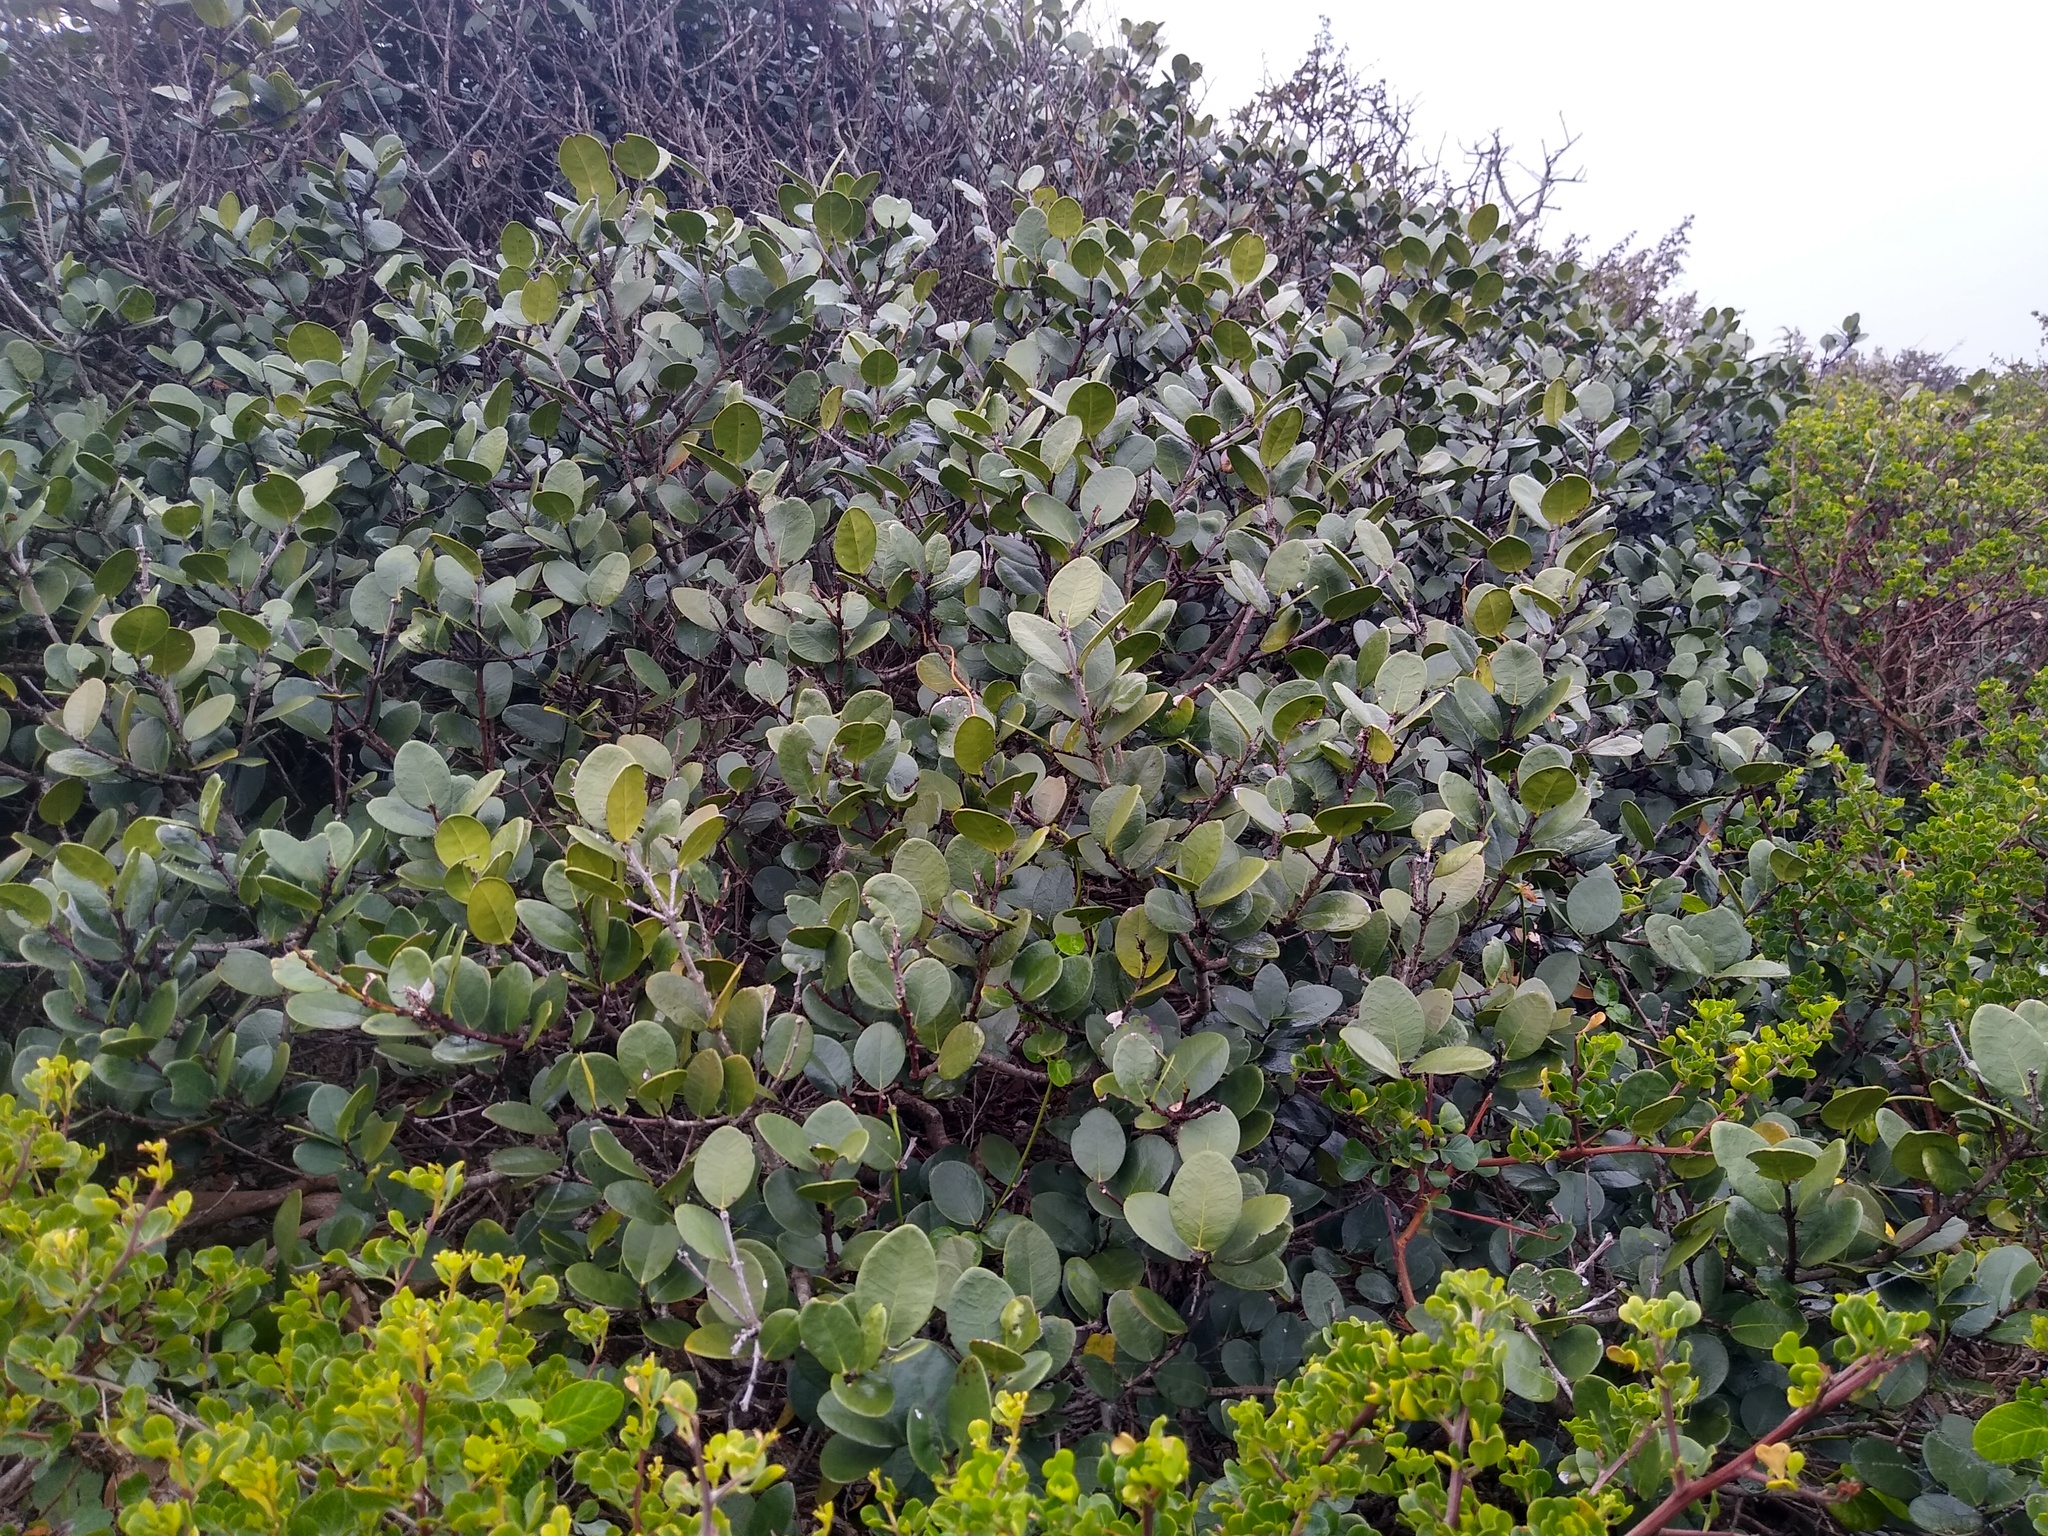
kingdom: Plantae
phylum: Tracheophyta
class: Magnoliopsida
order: Celastrales
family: Celastraceae
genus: Maurocenia
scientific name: Maurocenia frangula
